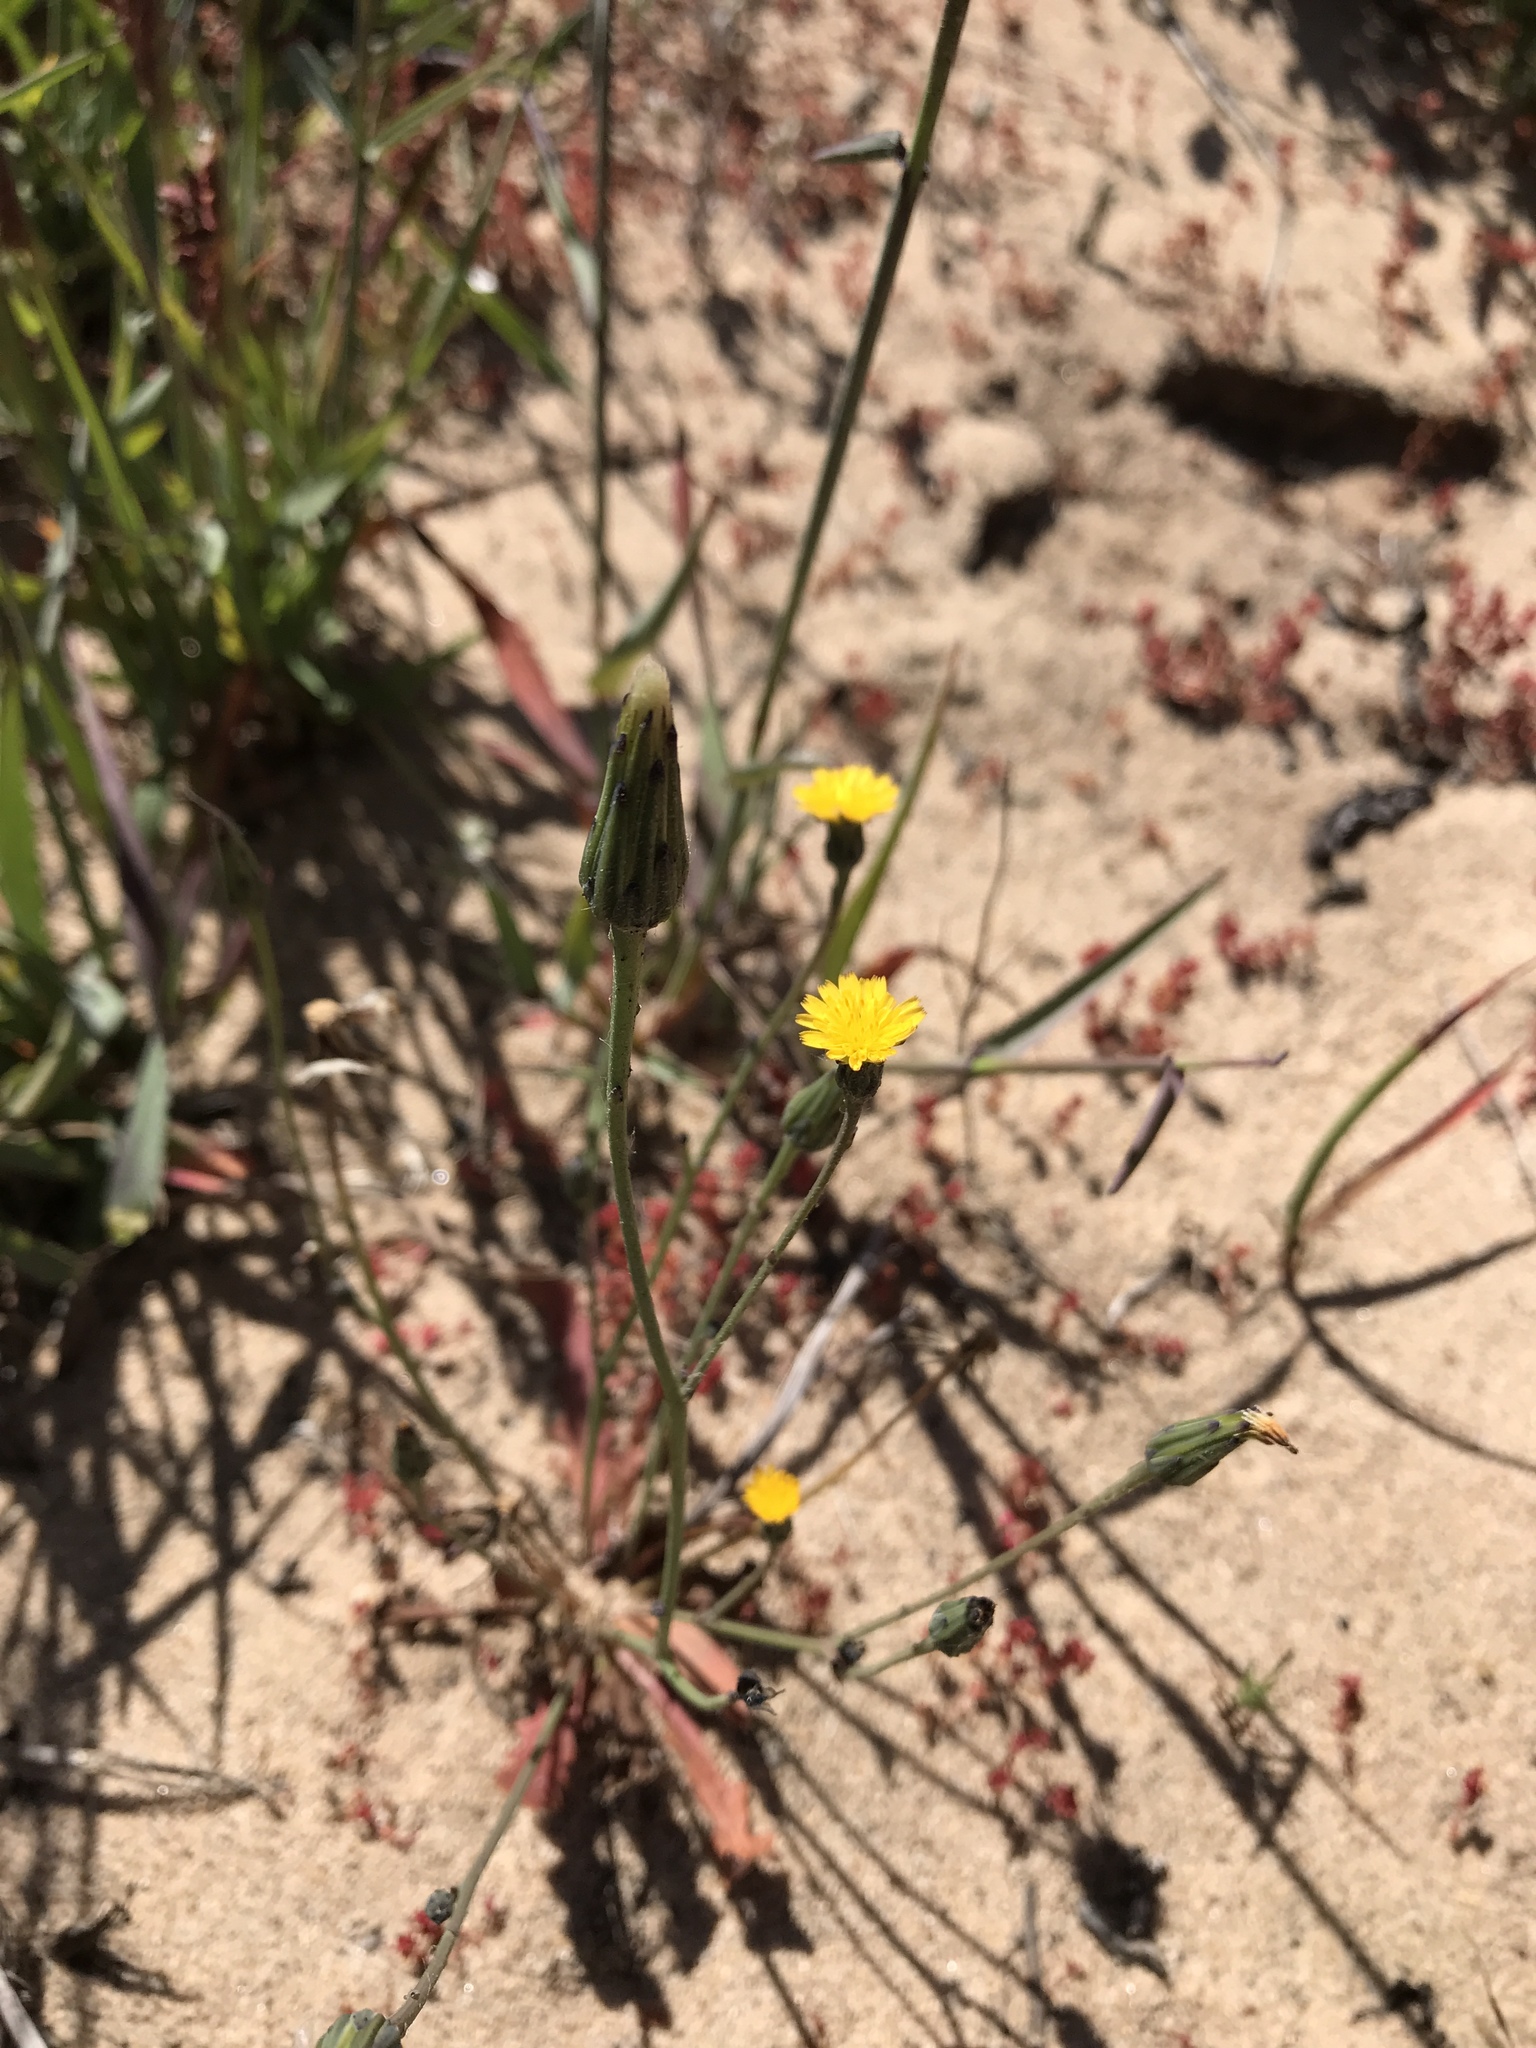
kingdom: Plantae
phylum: Tracheophyta
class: Magnoliopsida
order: Asterales
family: Asteraceae
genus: Hypochaeris
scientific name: Hypochaeris glabra
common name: Smooth catsear
